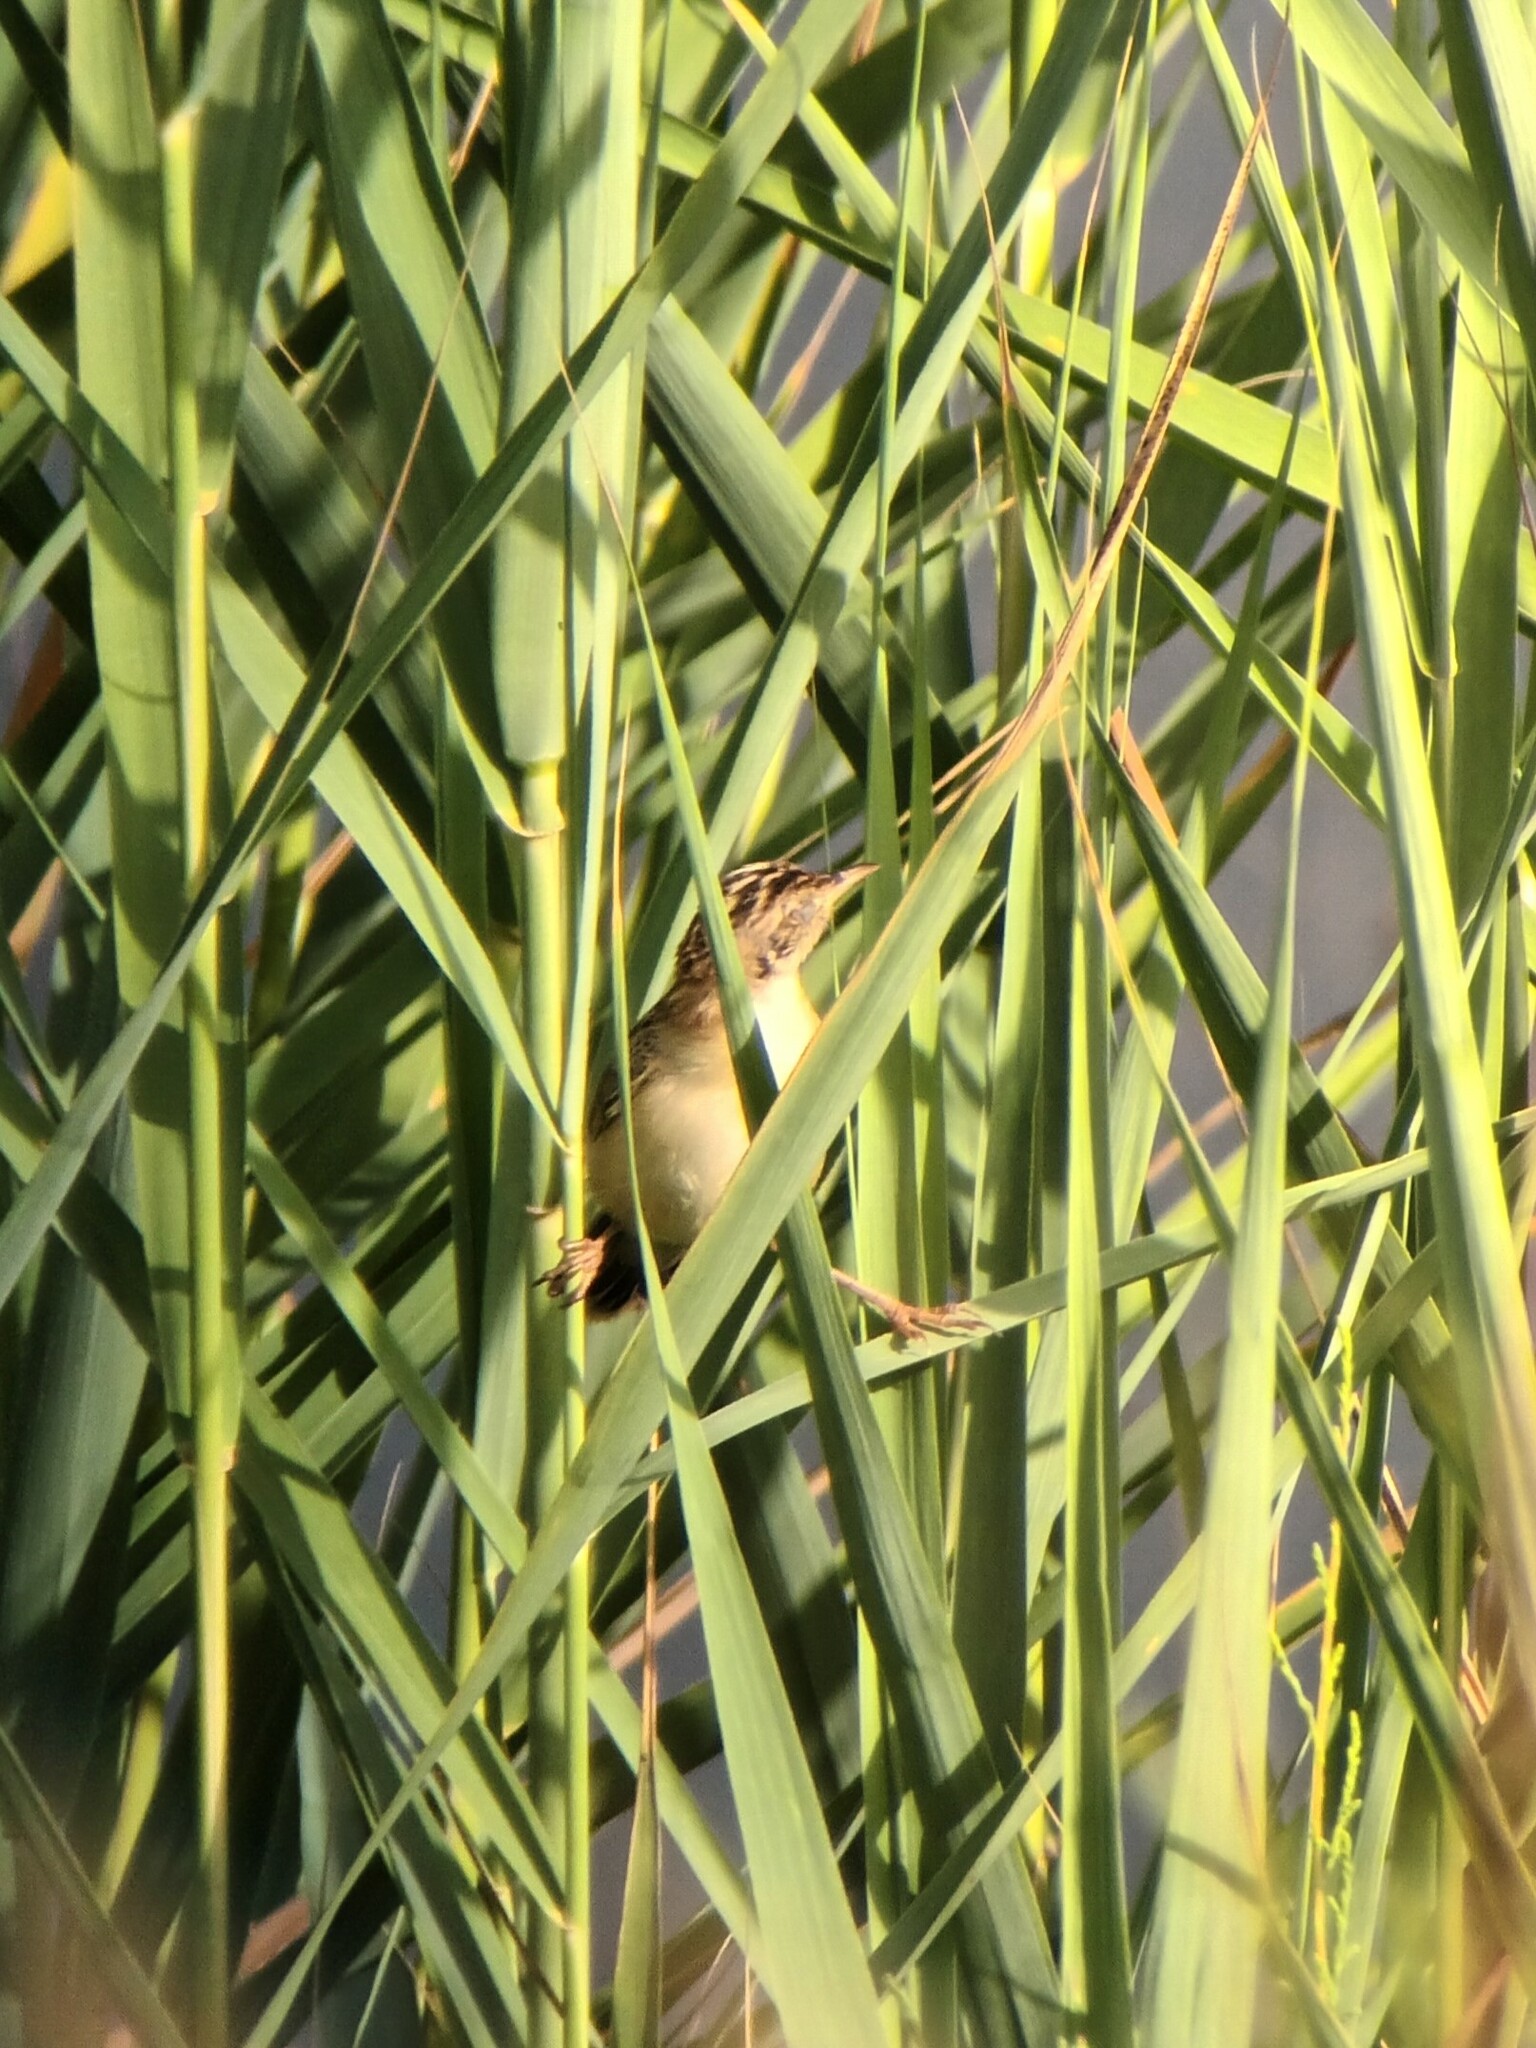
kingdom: Animalia
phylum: Chordata
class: Aves
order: Passeriformes
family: Cisticolidae
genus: Cisticola
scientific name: Cisticola juncidis
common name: Zitting cisticola
